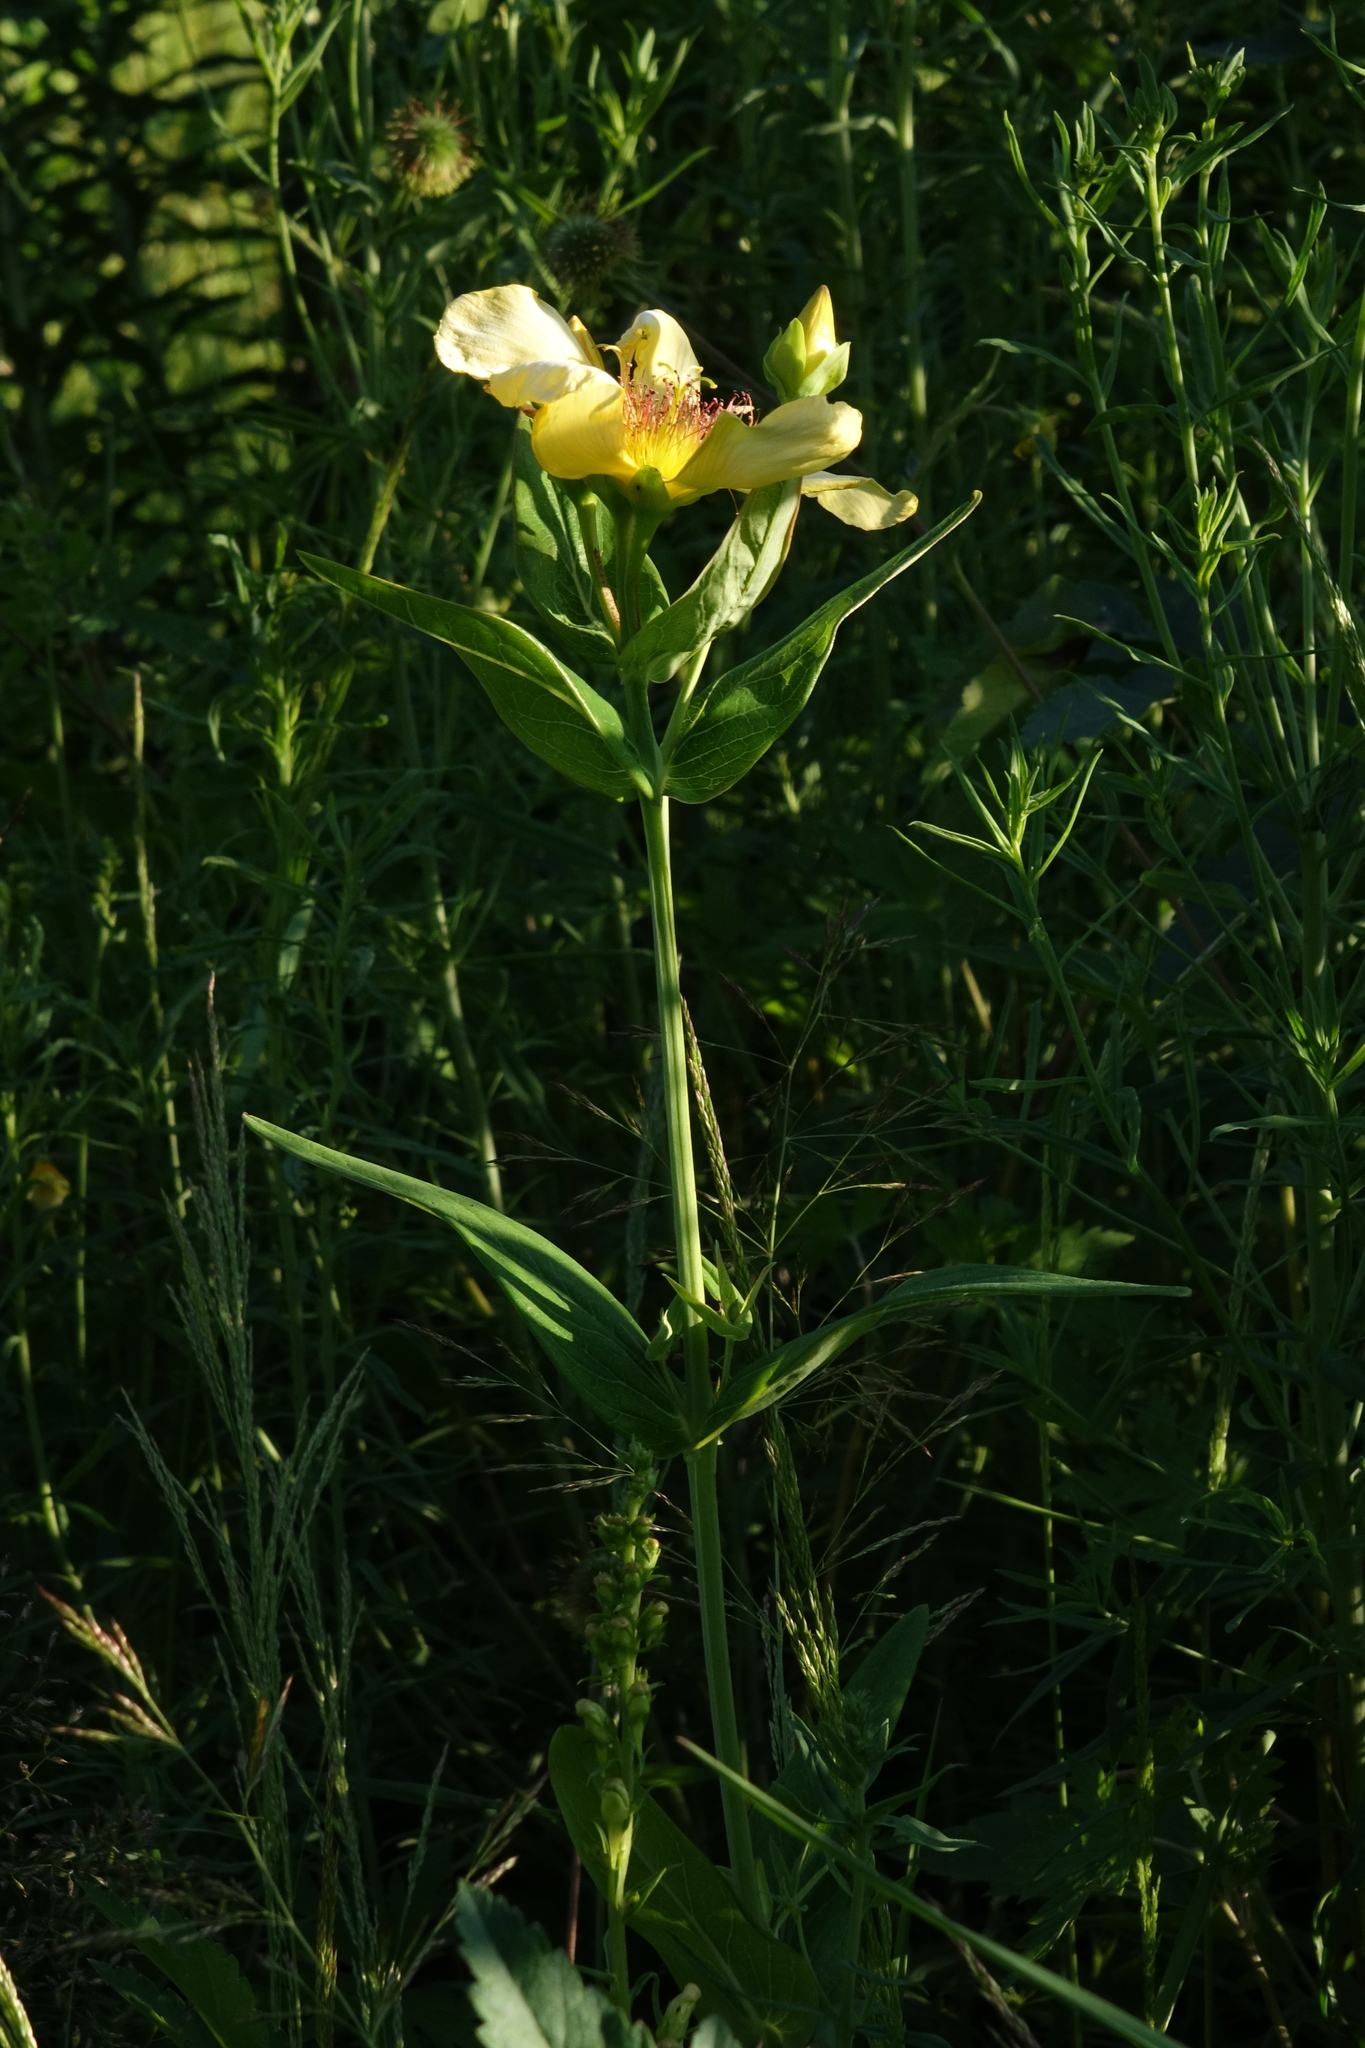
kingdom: Plantae
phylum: Tracheophyta
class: Magnoliopsida
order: Malpighiales
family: Hypericaceae
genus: Hypericum
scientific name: Hypericum ascyron
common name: Giant st. john's-wort
